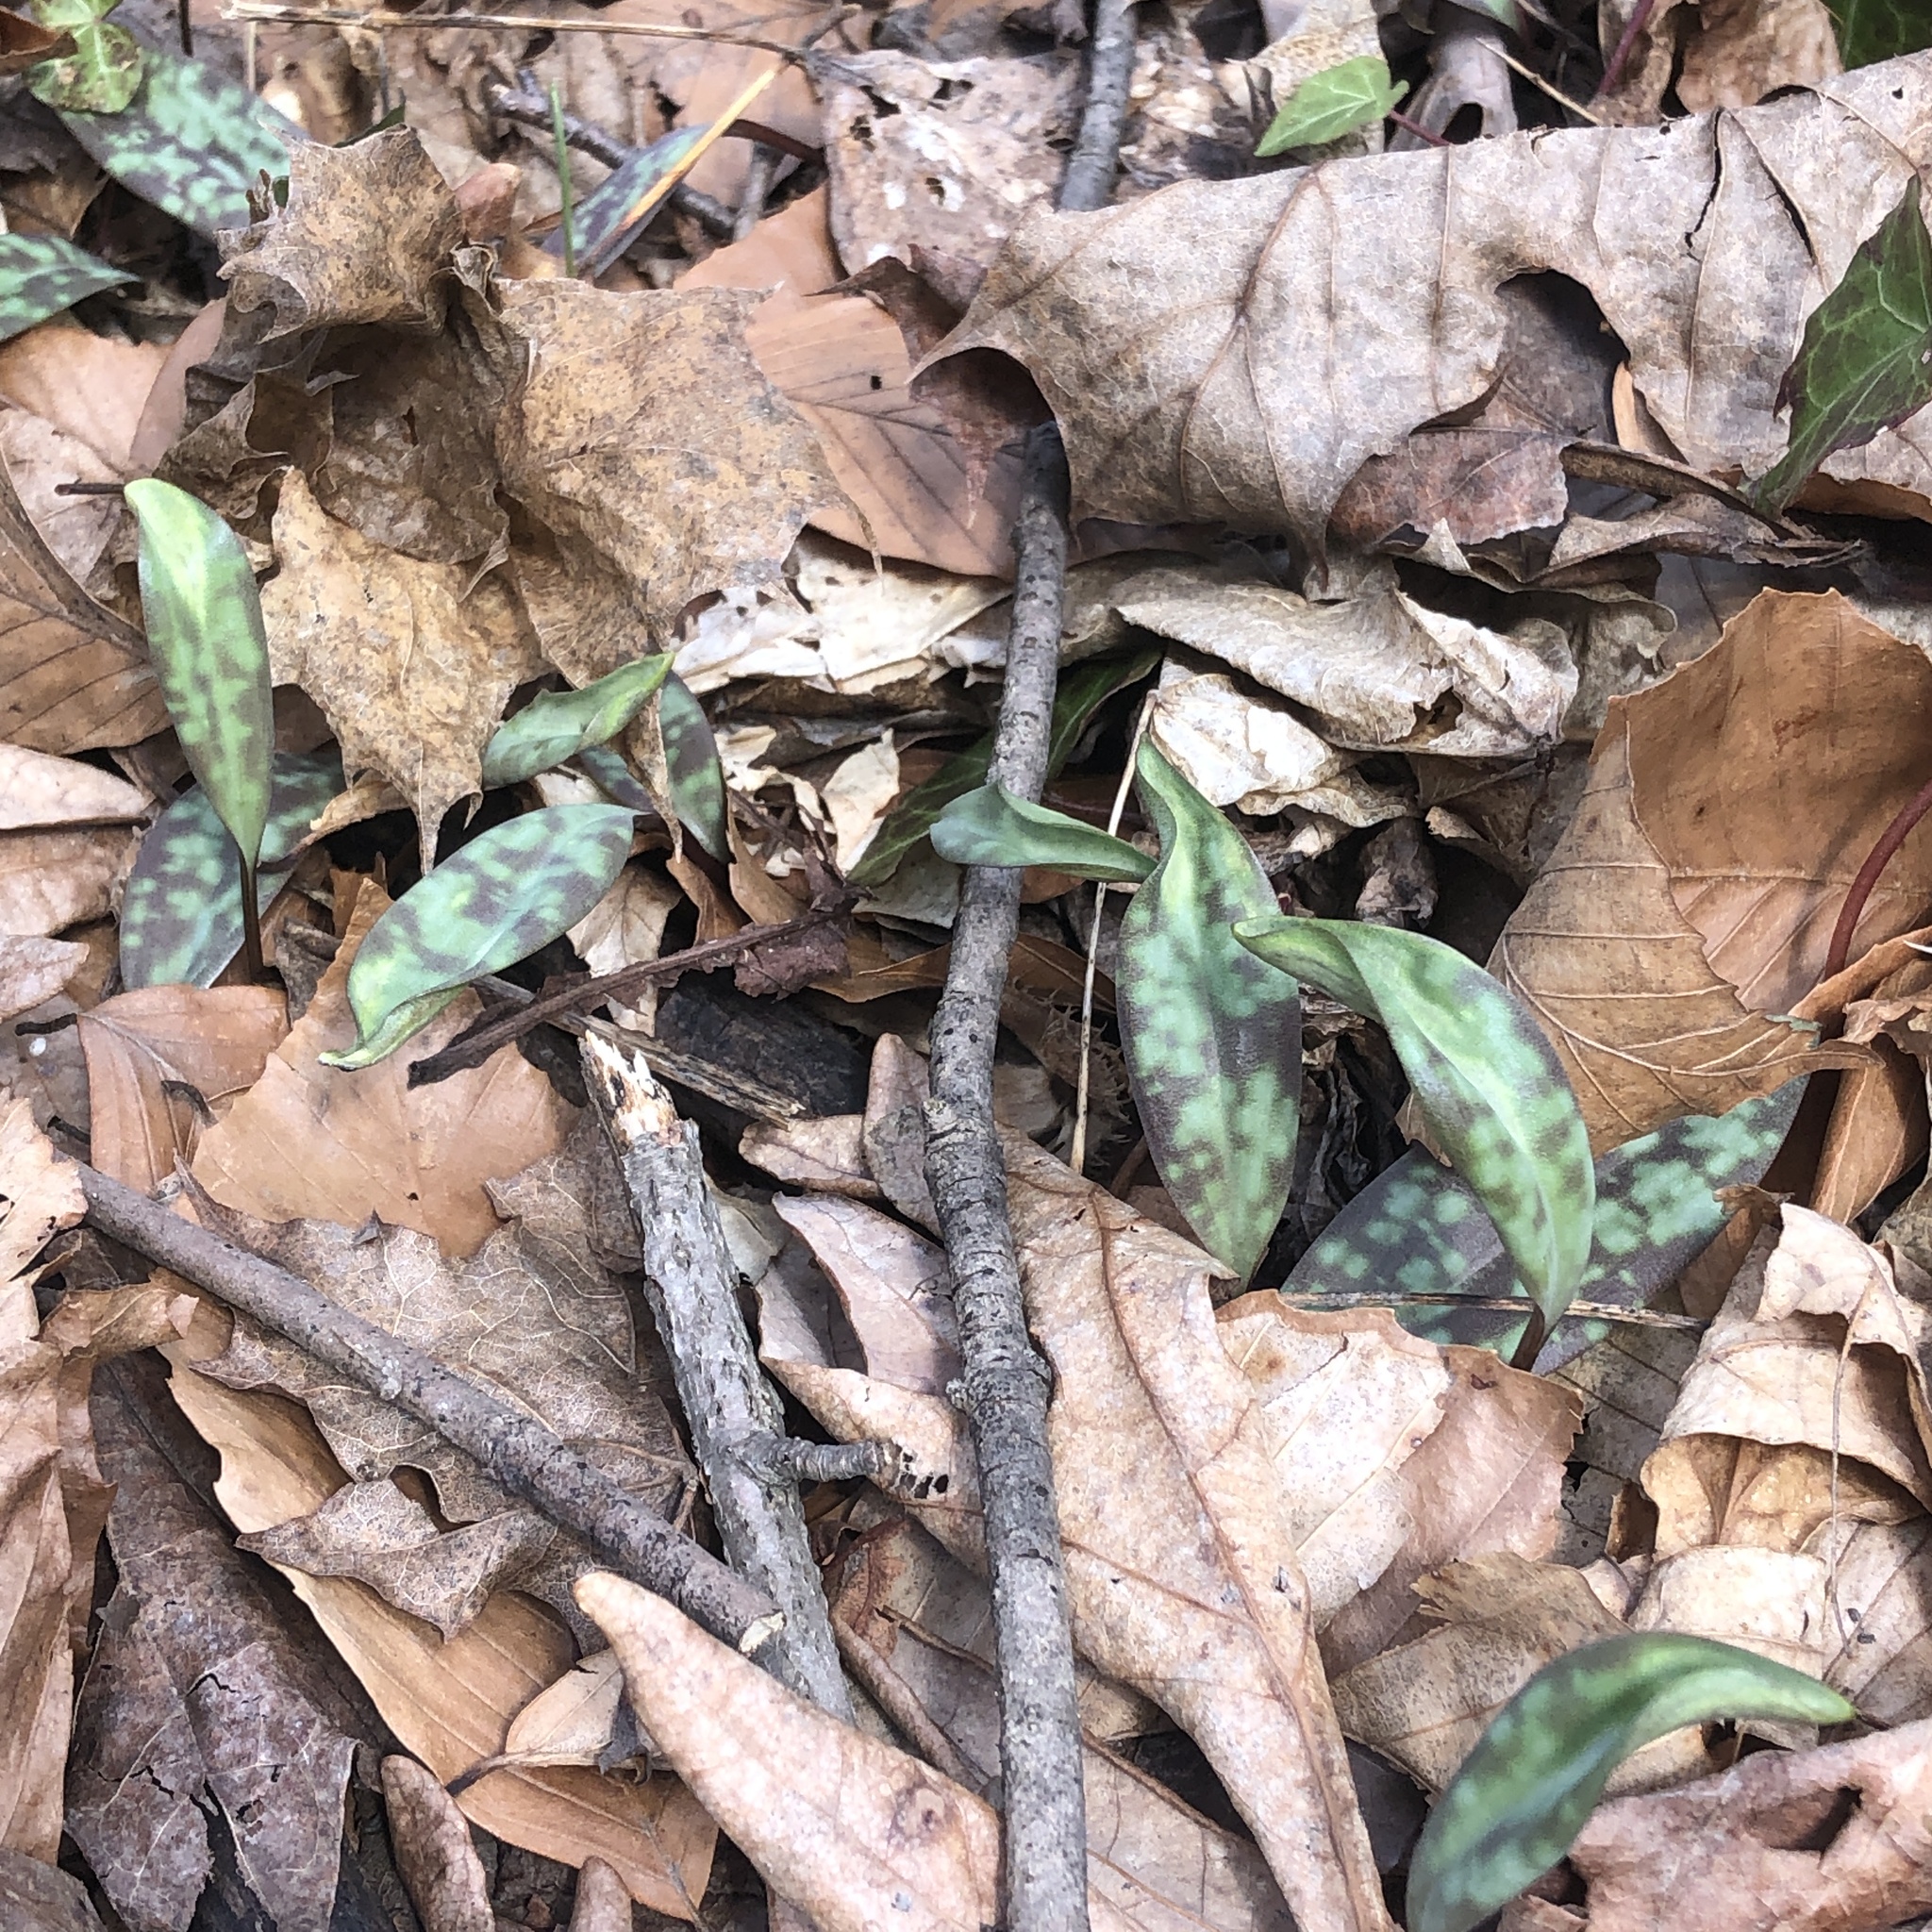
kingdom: Plantae
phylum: Tracheophyta
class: Liliopsida
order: Liliales
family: Liliaceae
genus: Erythronium
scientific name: Erythronium americanum
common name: Yellow adder's-tongue
